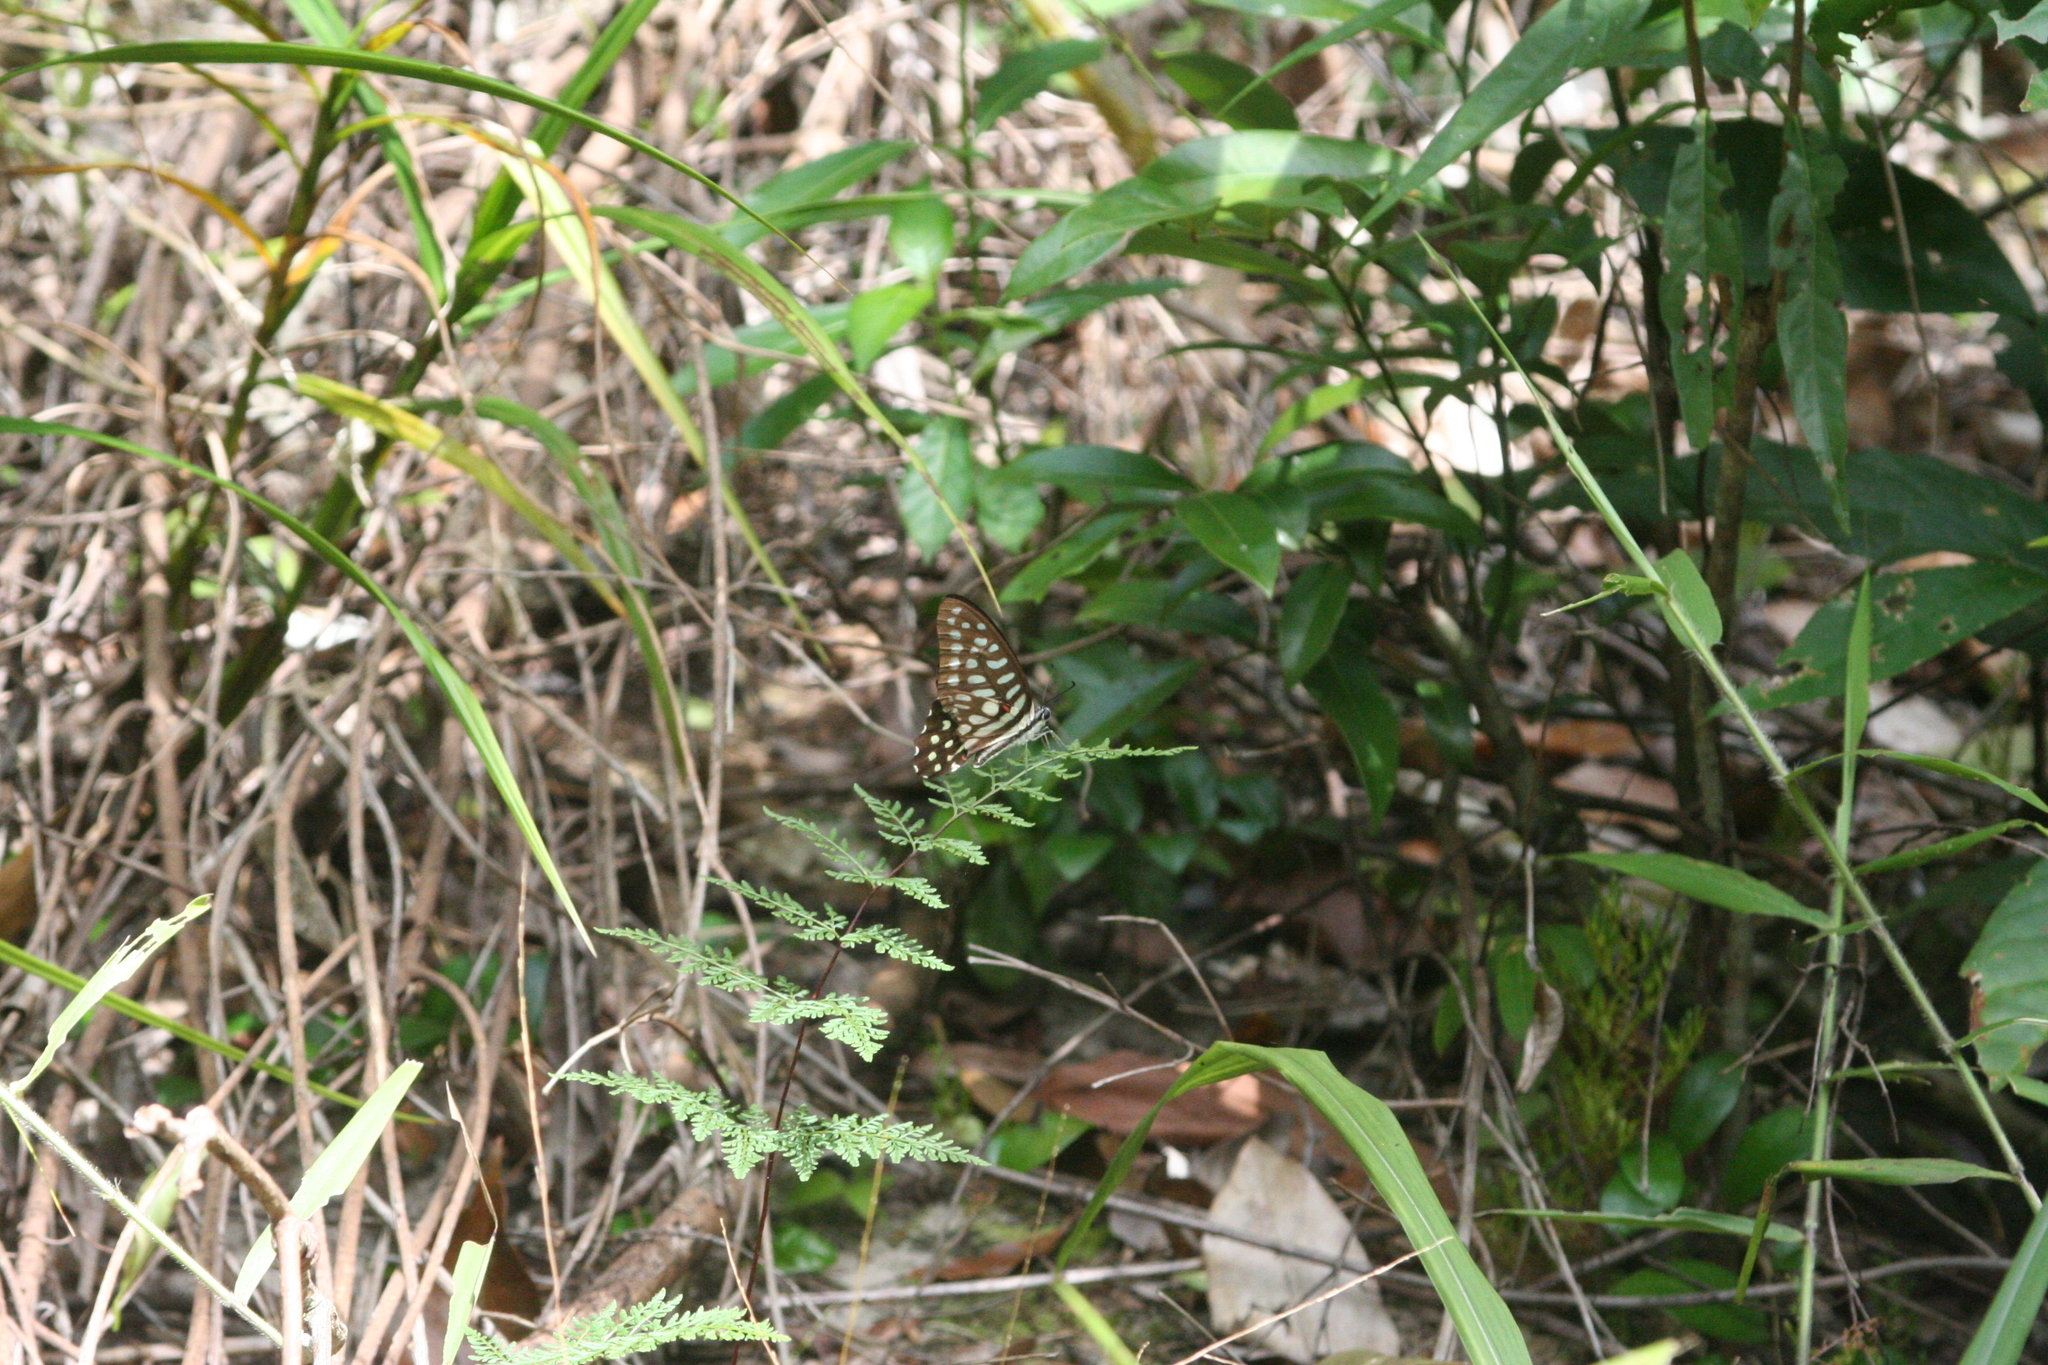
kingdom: Animalia
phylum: Arthropoda
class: Insecta
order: Lepidoptera
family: Papilionidae
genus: Graphium
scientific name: Graphium arycles
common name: Spotted jay
